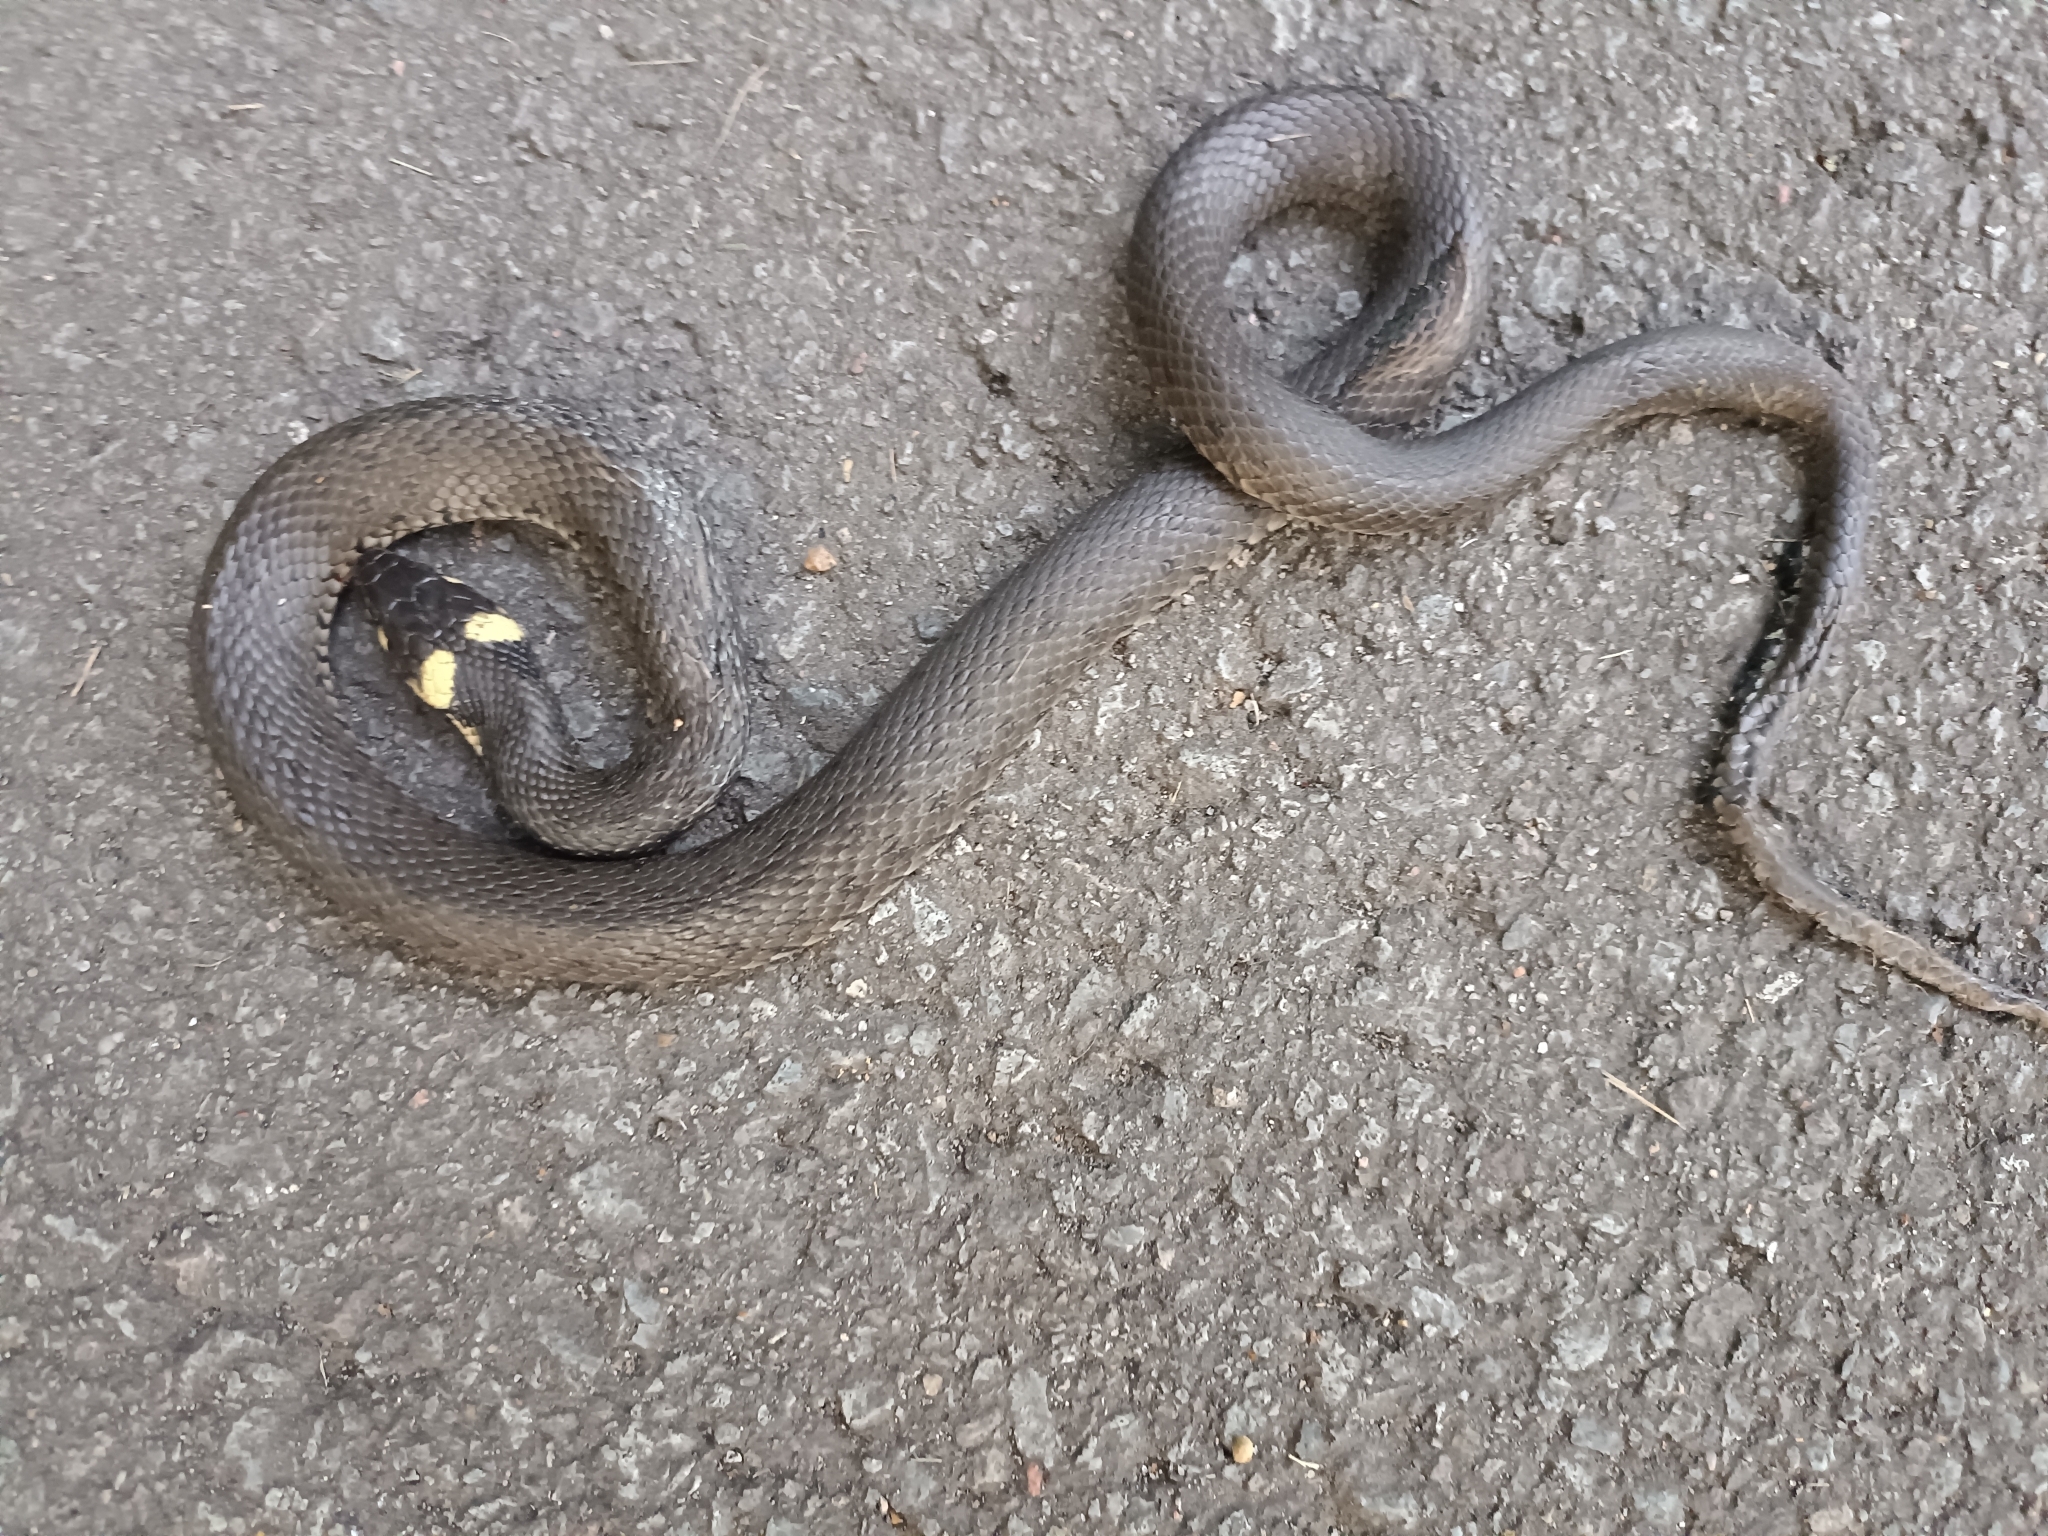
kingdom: Animalia
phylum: Chordata
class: Squamata
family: Colubridae
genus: Natrix
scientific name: Natrix natrix
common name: Grass snake
